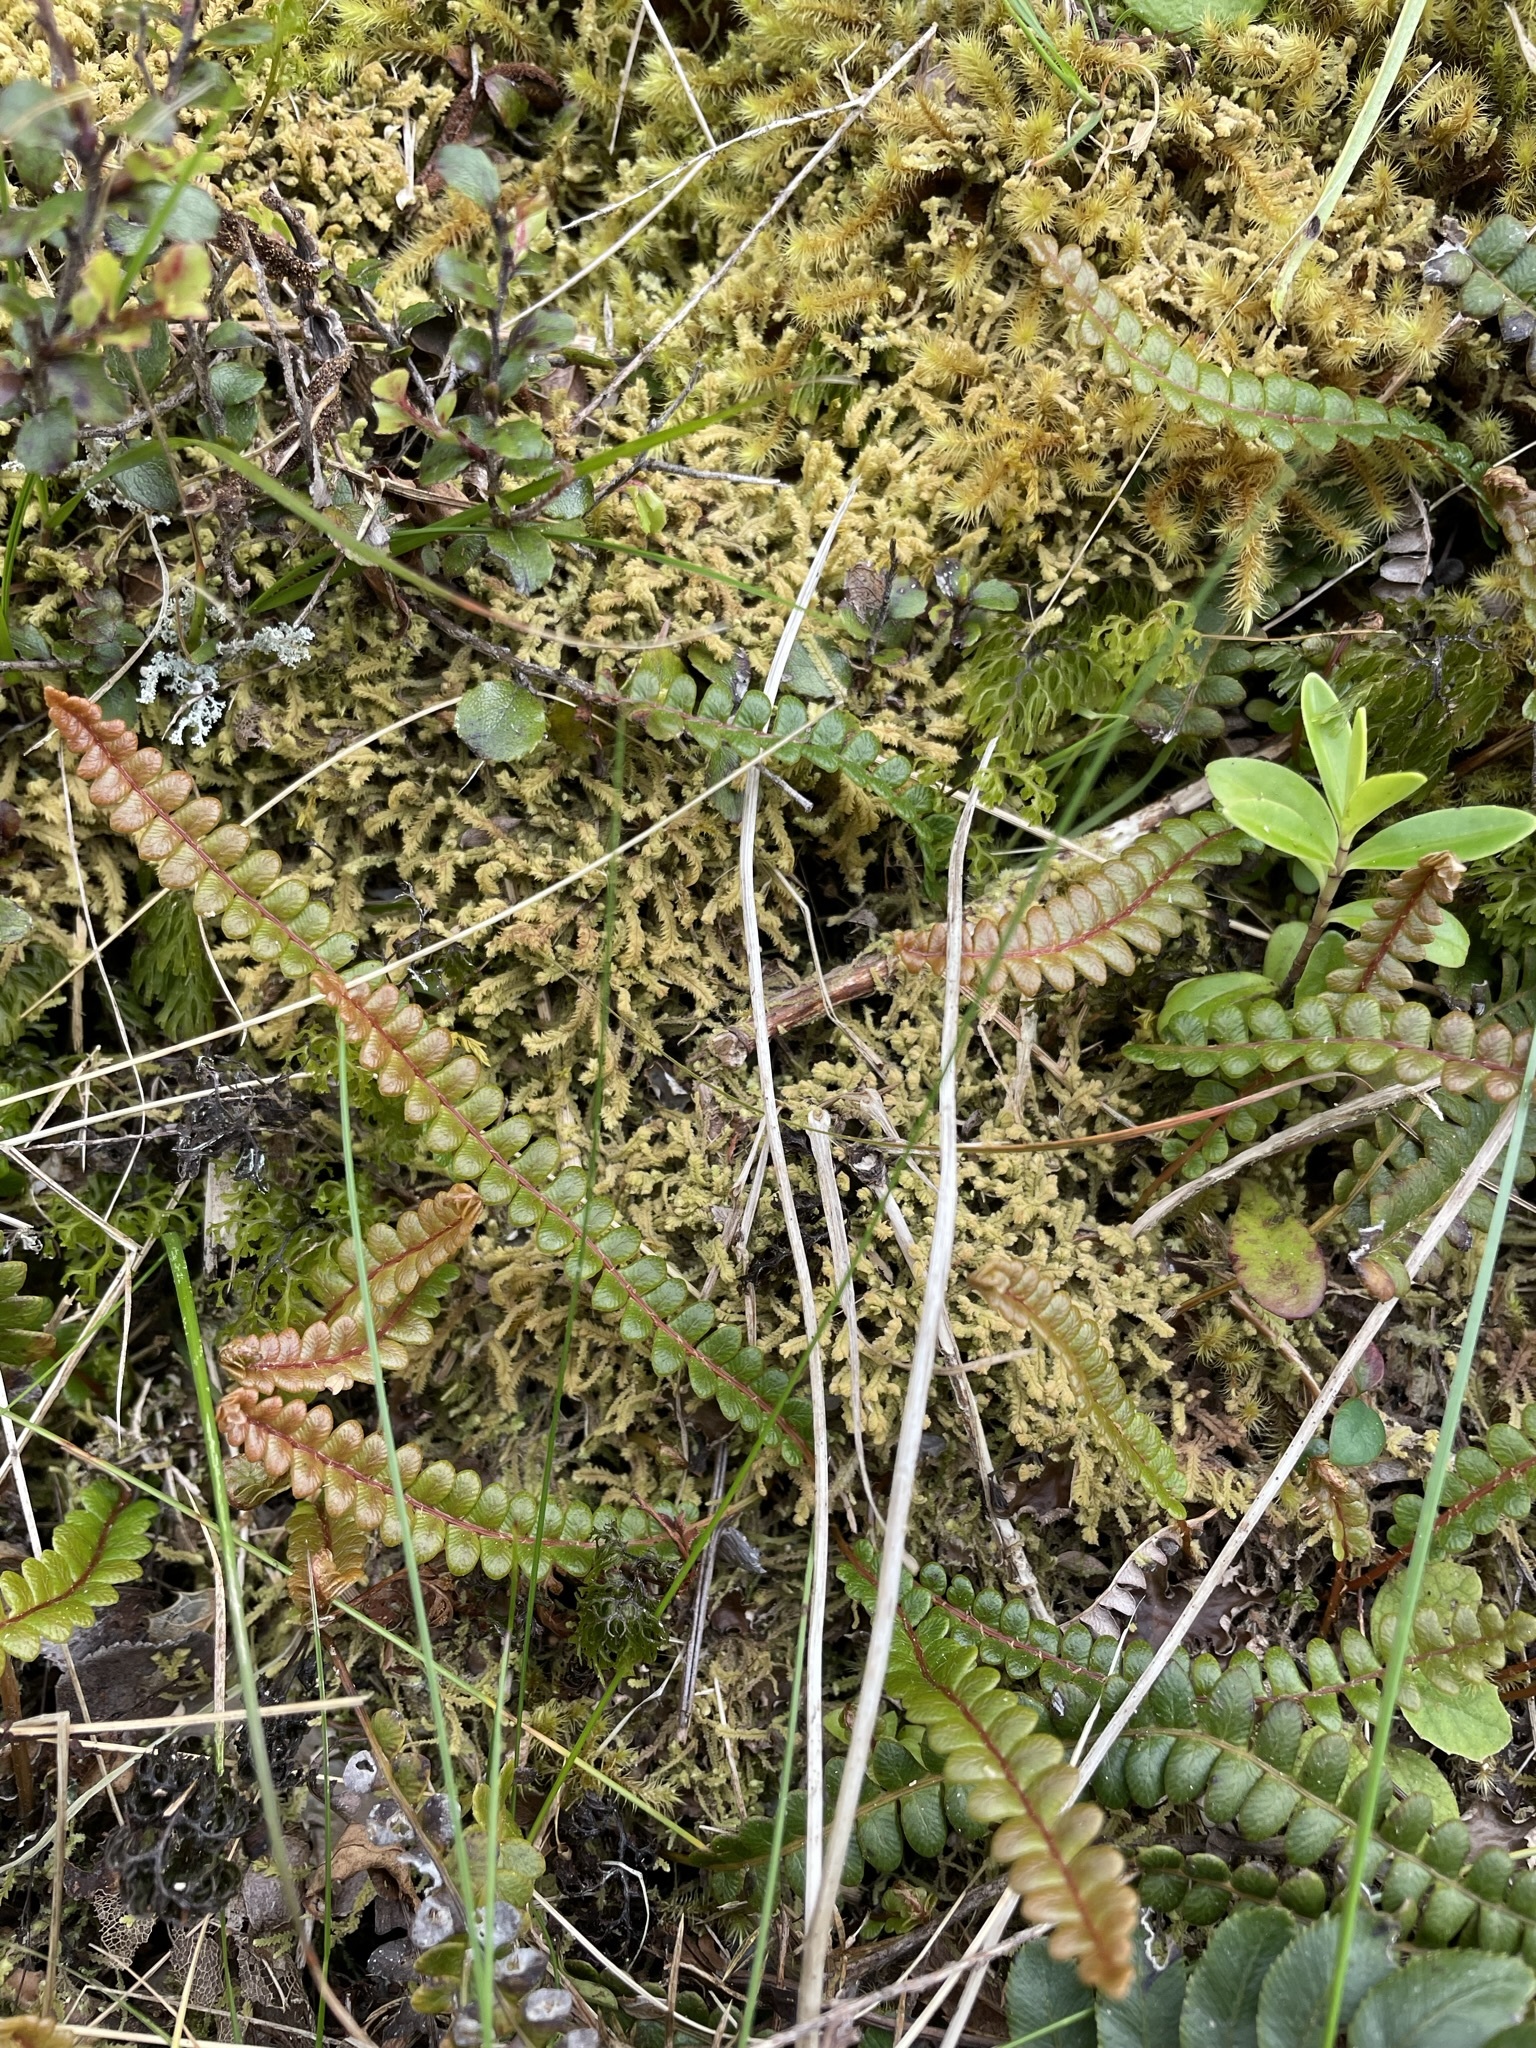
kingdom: Plantae
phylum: Tracheophyta
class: Polypodiopsida
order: Polypodiales
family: Blechnaceae
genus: Austroblechnum
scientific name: Austroblechnum penna-marina
